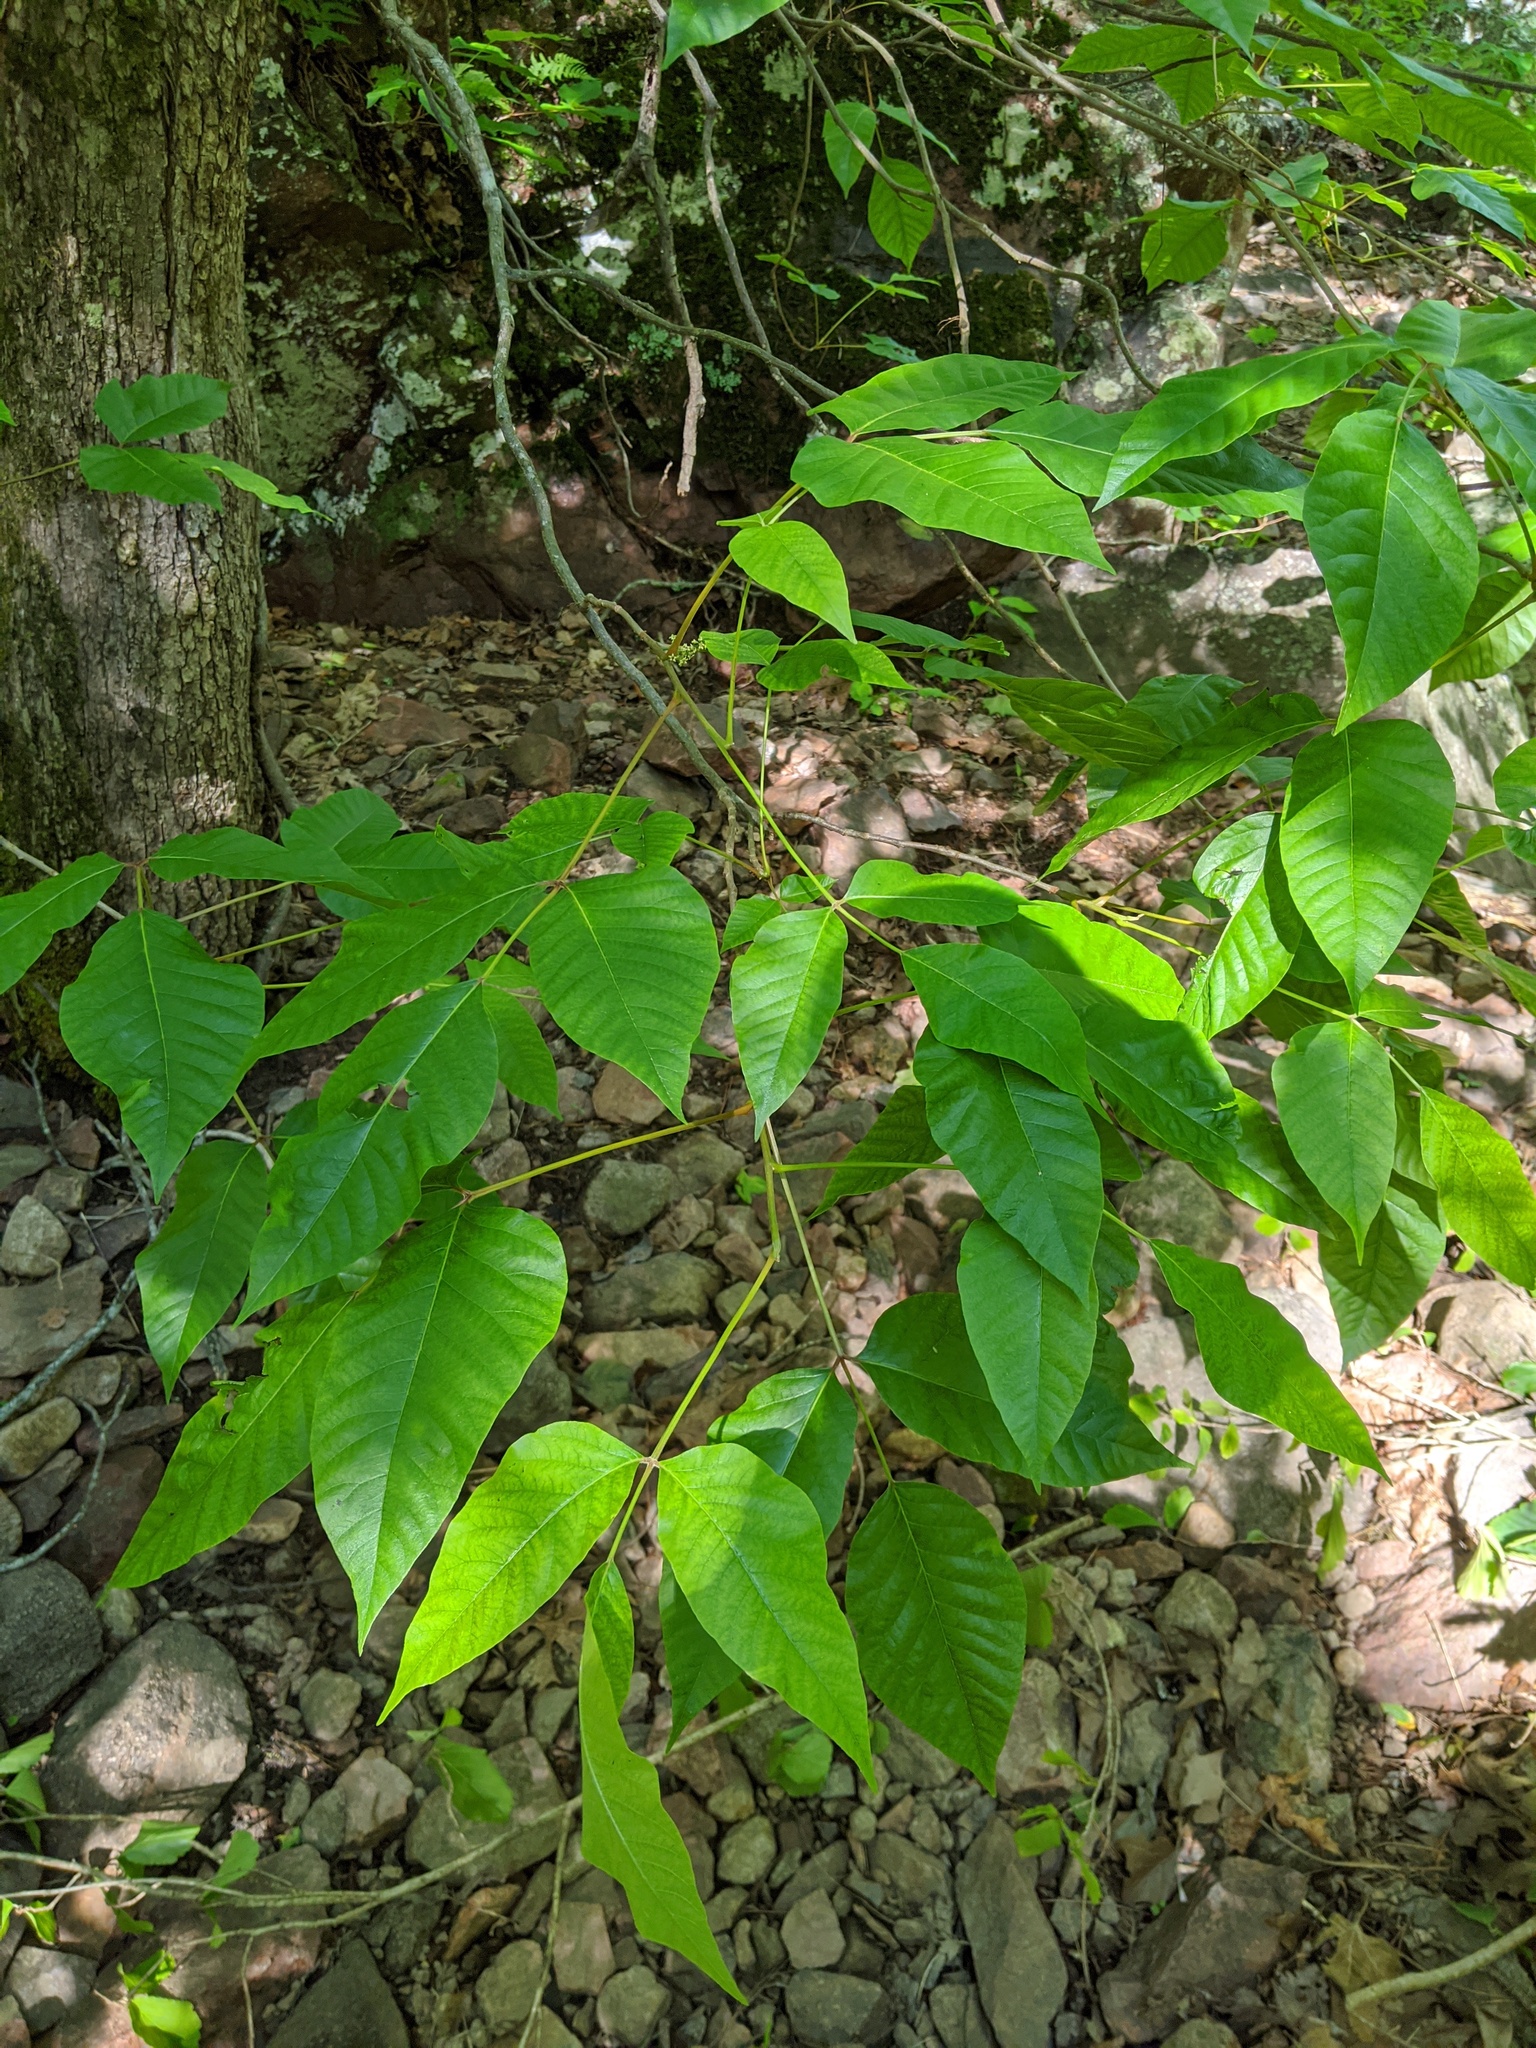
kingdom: Plantae
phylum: Tracheophyta
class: Magnoliopsida
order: Sapindales
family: Anacardiaceae
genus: Toxicodendron
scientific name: Toxicodendron radicans
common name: Poison ivy
